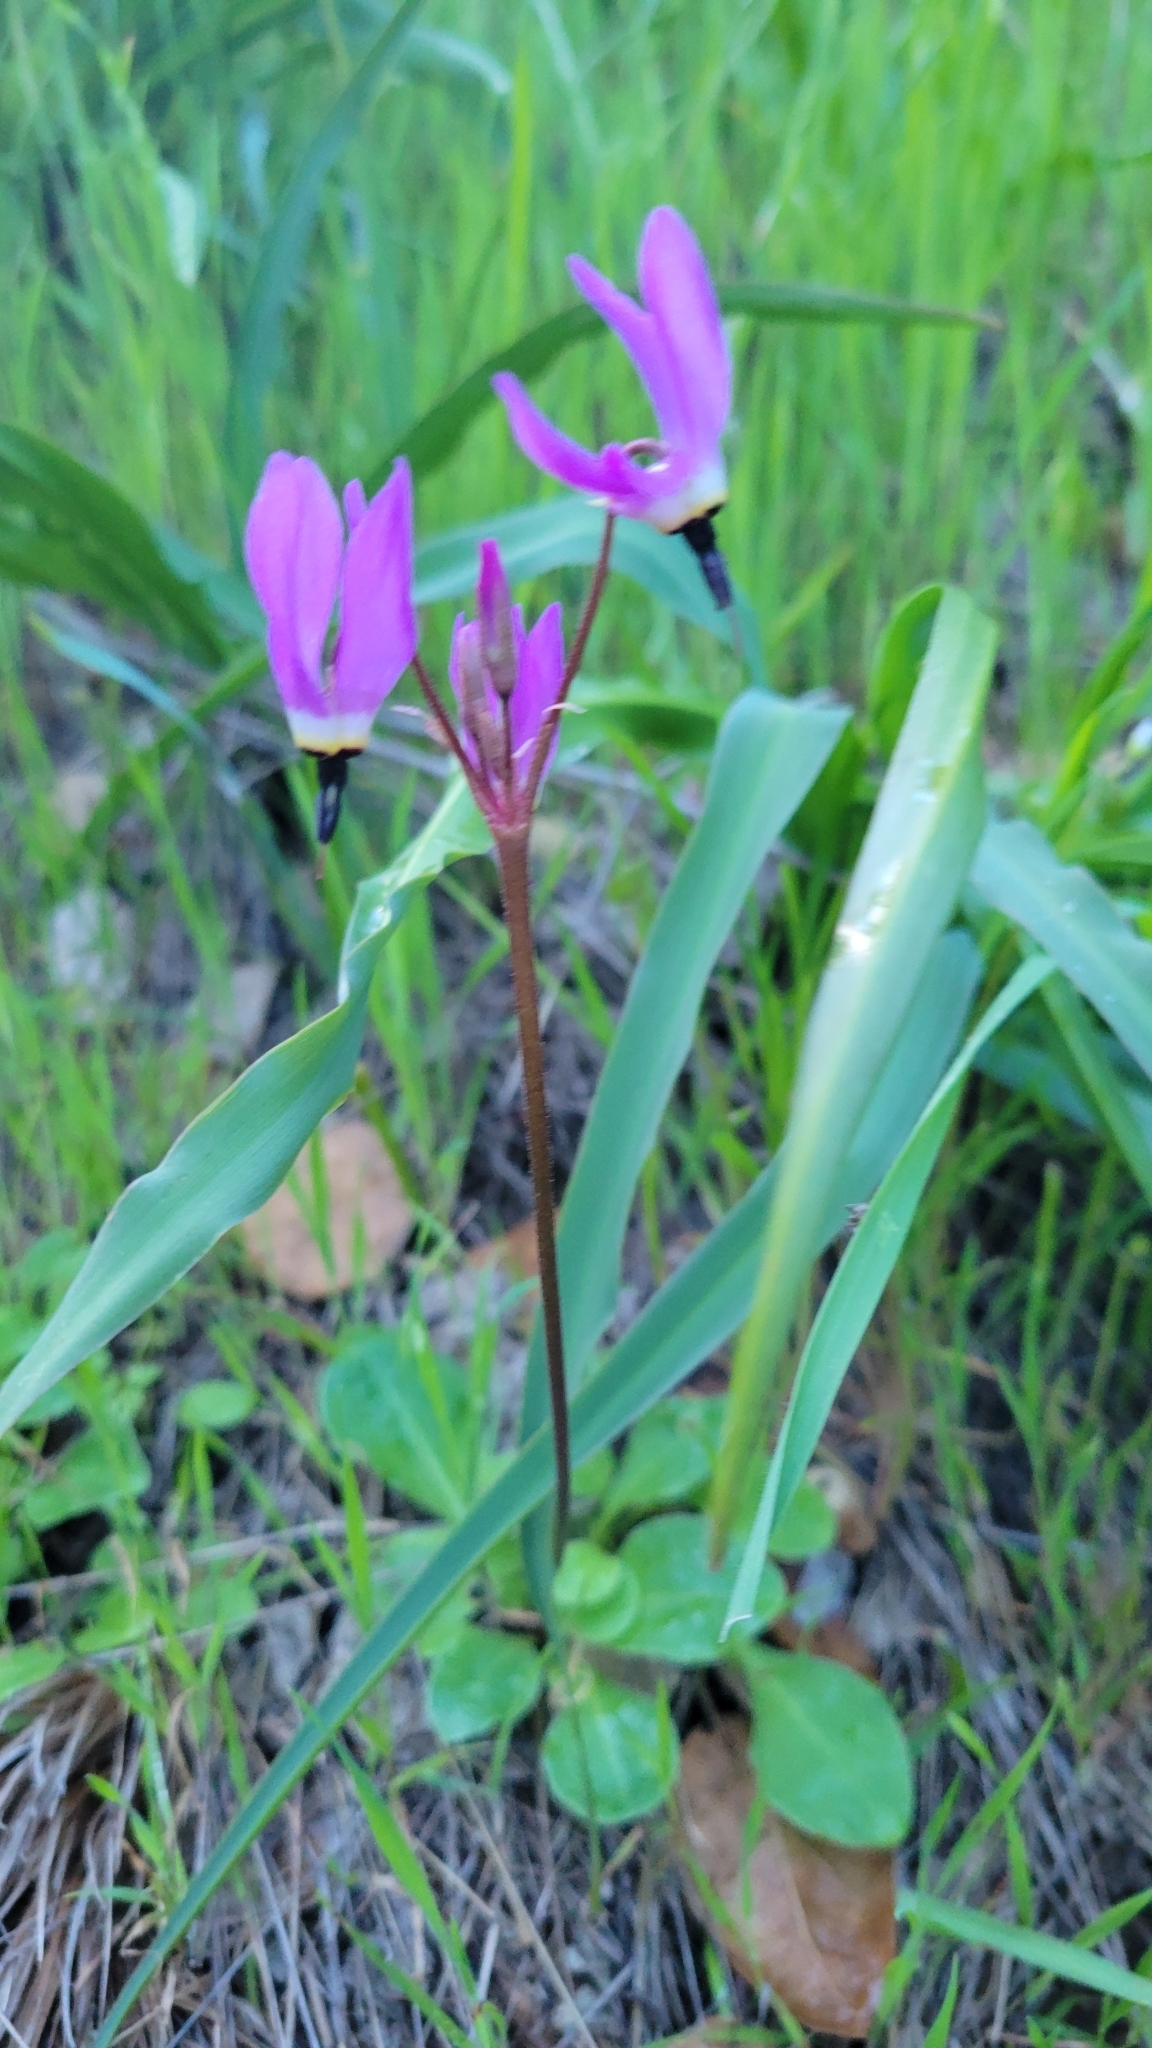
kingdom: Plantae
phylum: Tracheophyta
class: Magnoliopsida
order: Ericales
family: Primulaceae
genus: Dodecatheon
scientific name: Dodecatheon hendersonii
